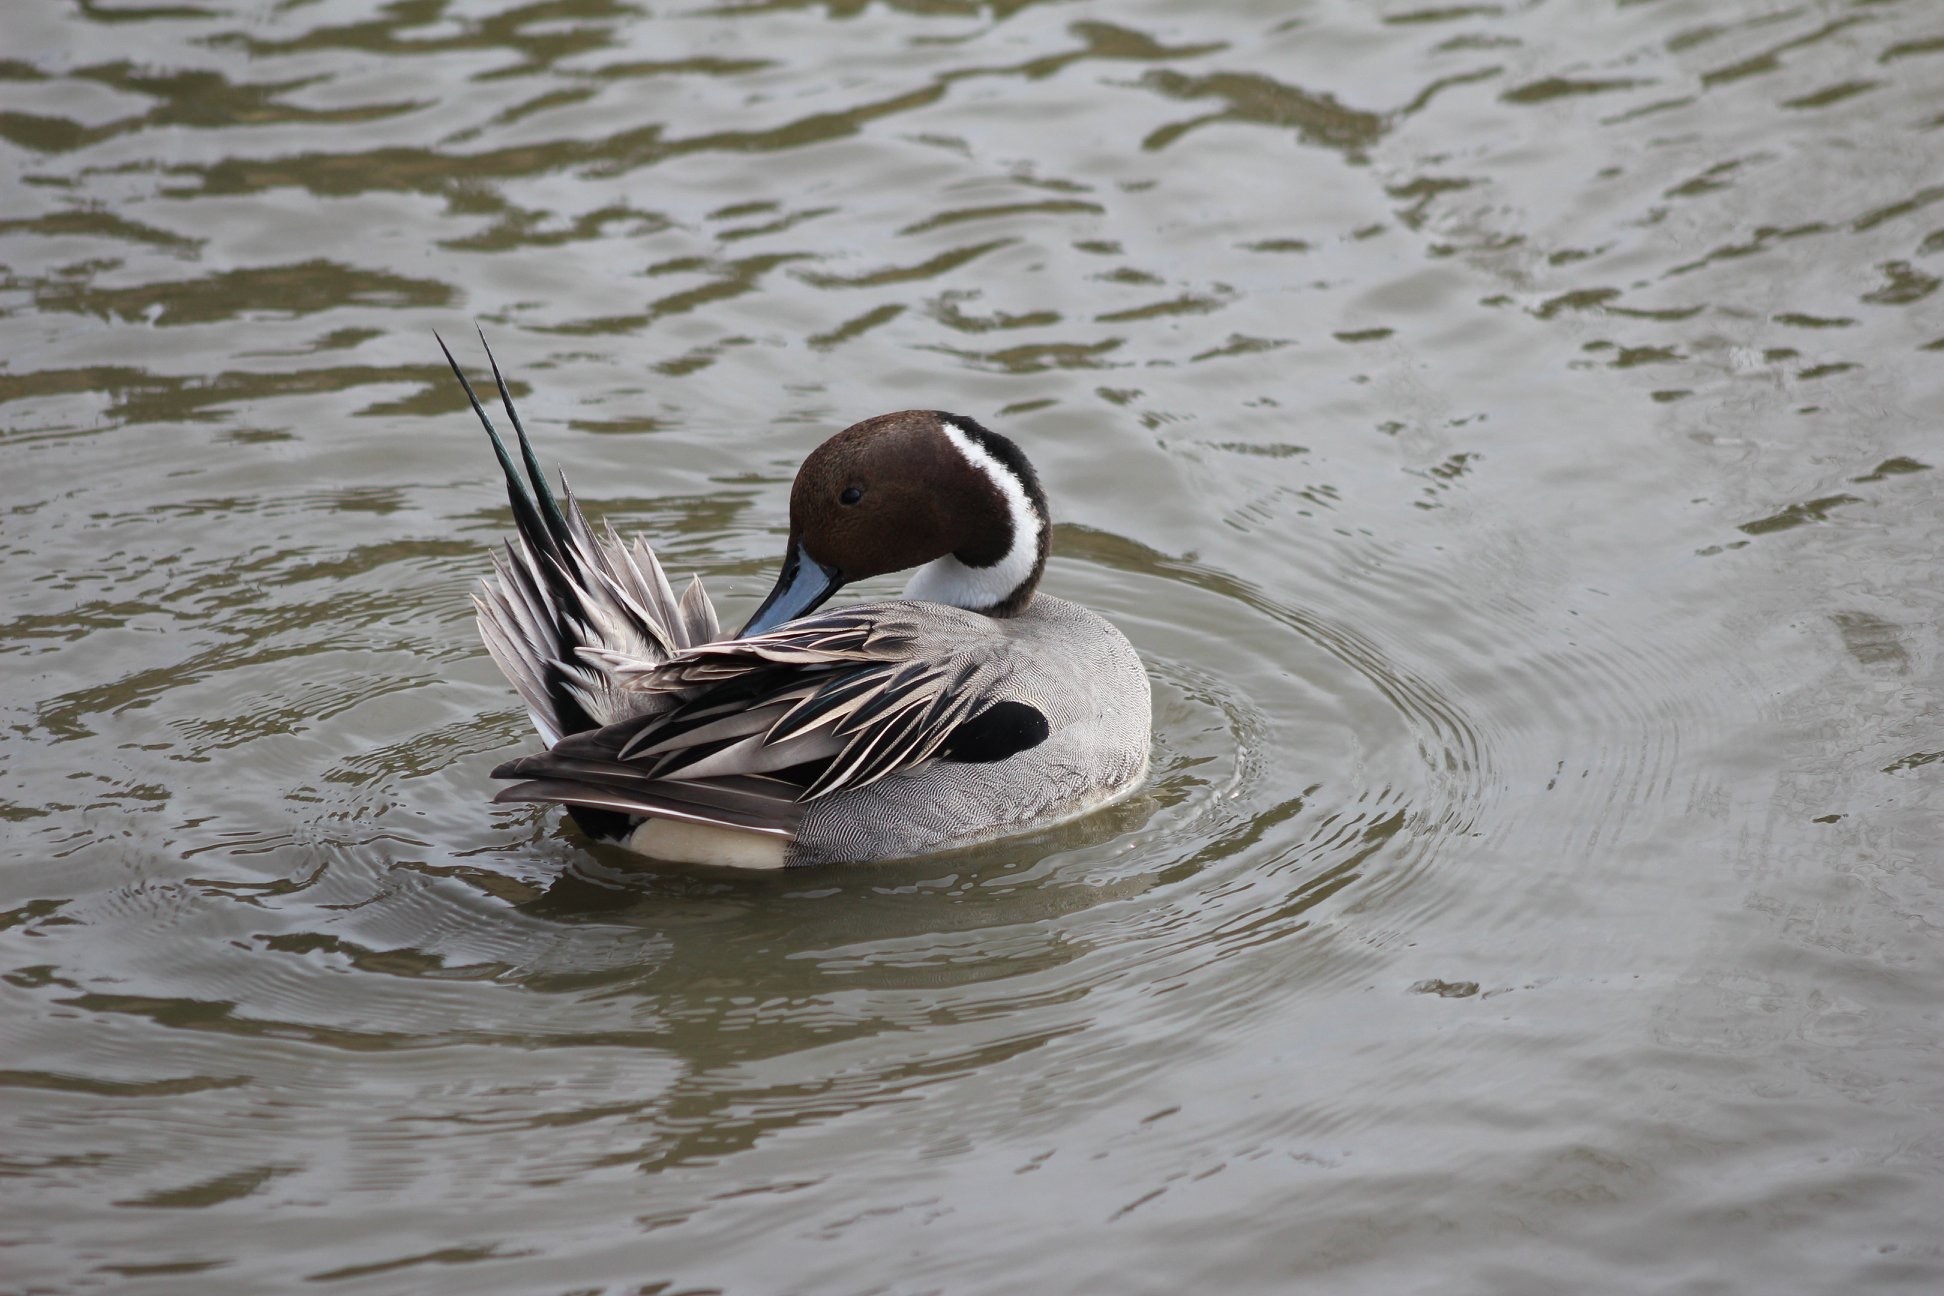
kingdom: Animalia
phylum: Chordata
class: Aves
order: Anseriformes
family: Anatidae
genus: Anas
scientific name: Anas acuta
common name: Northern pintail
